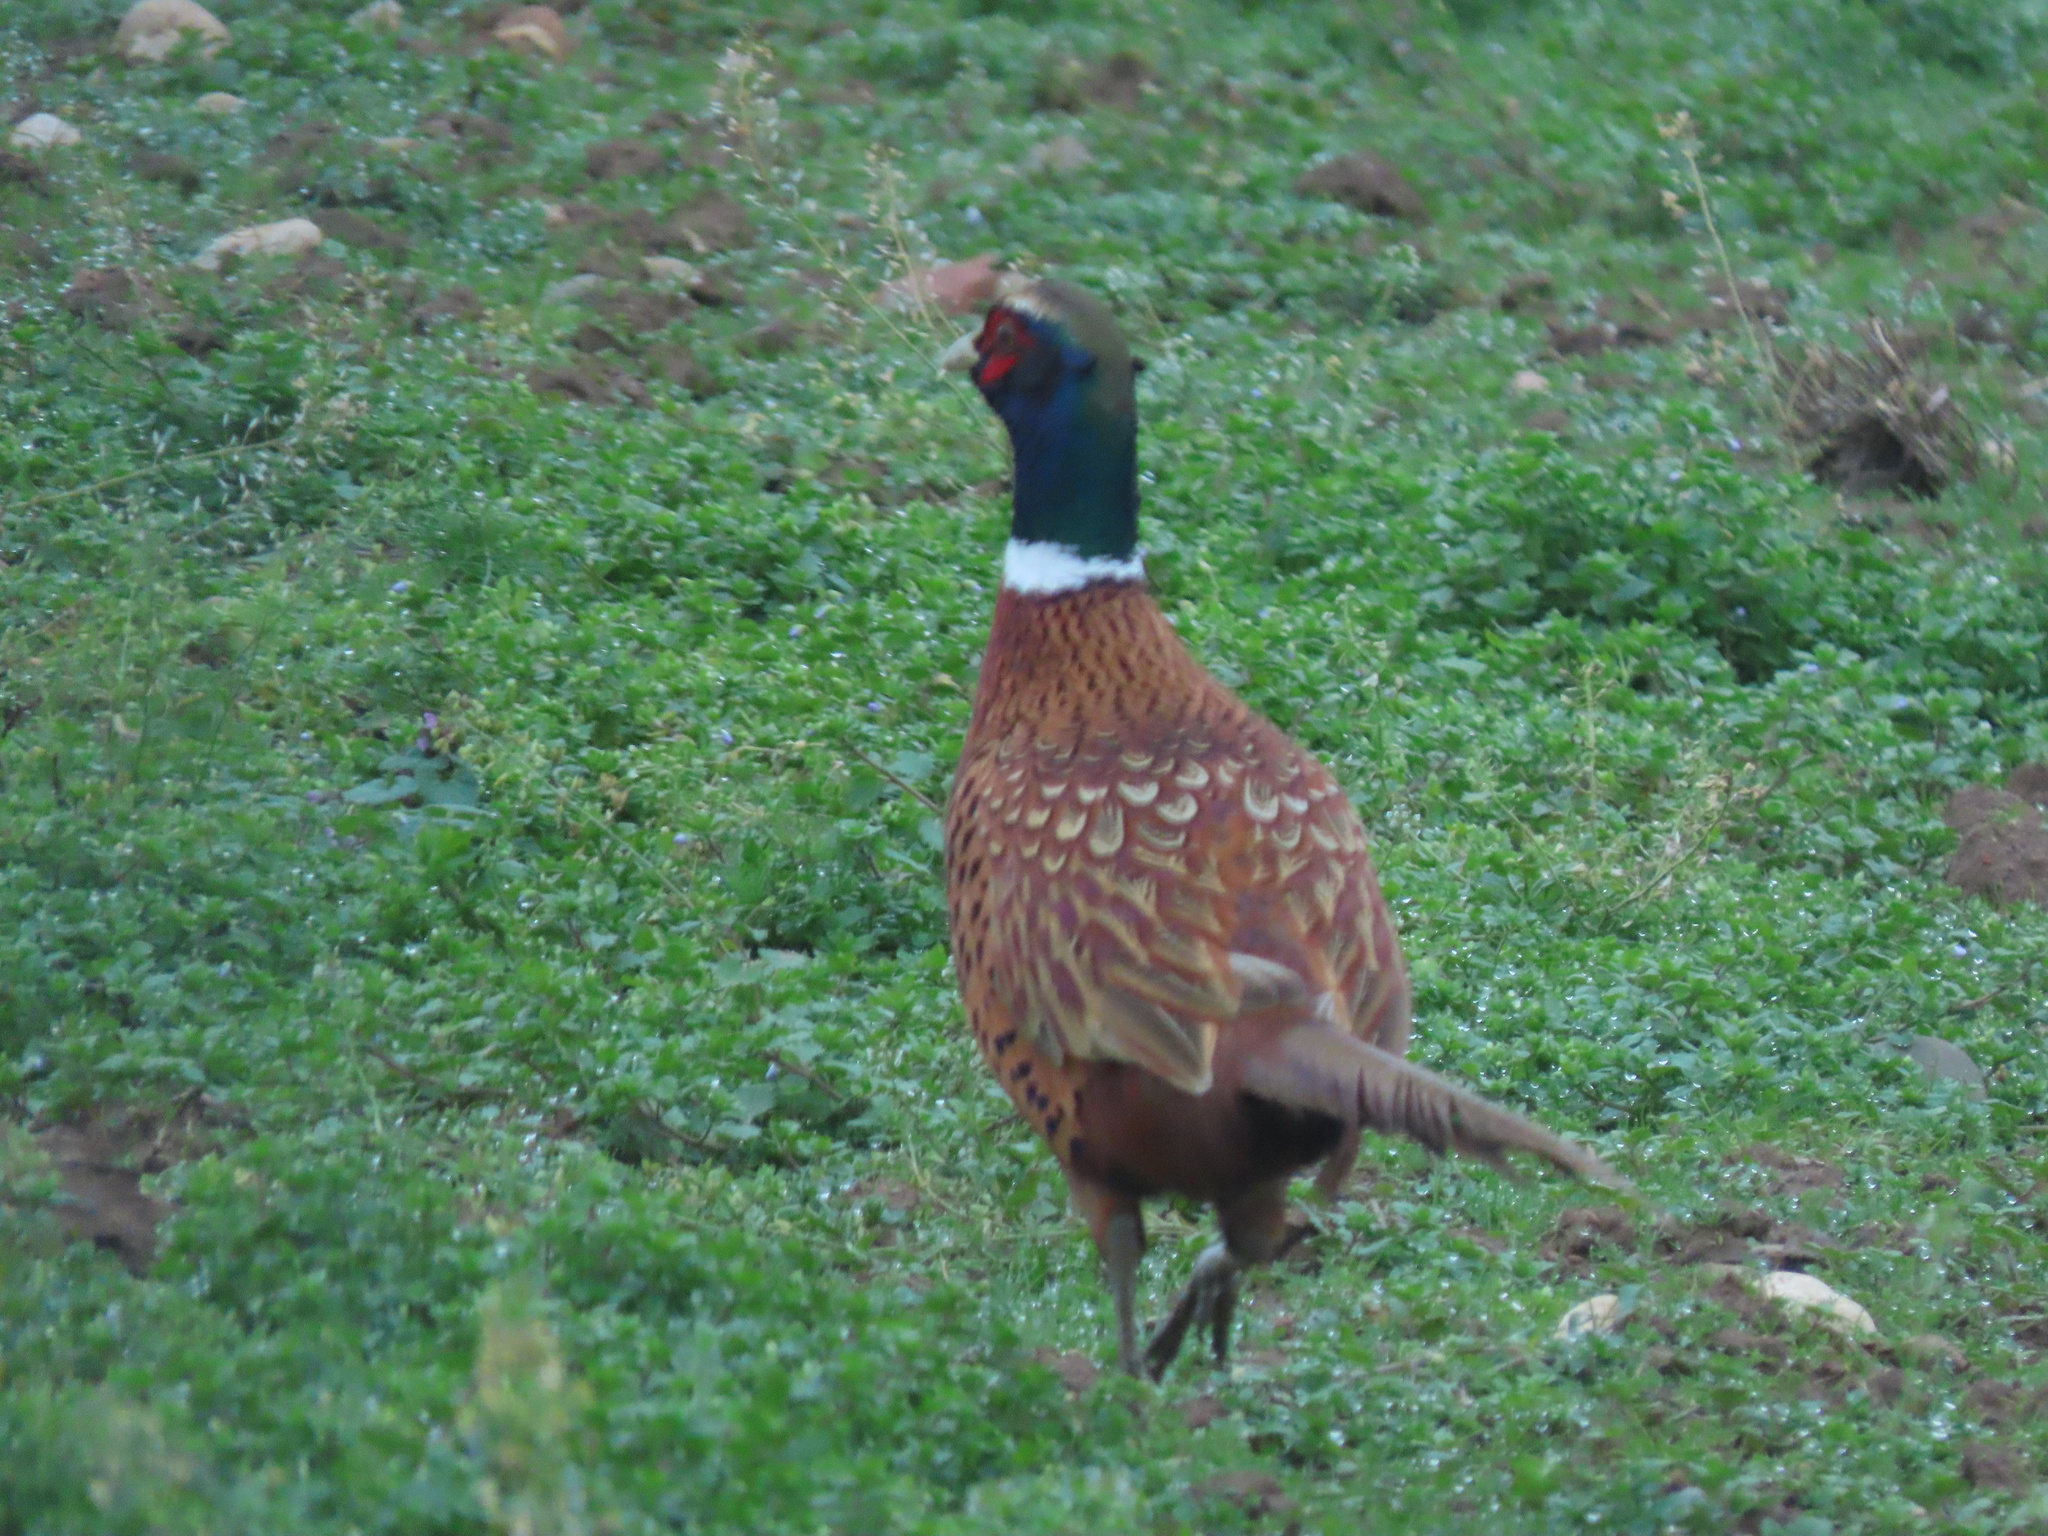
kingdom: Animalia
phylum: Chordata
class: Aves
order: Galliformes
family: Phasianidae
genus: Phasianus
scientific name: Phasianus colchicus
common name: Common pheasant
